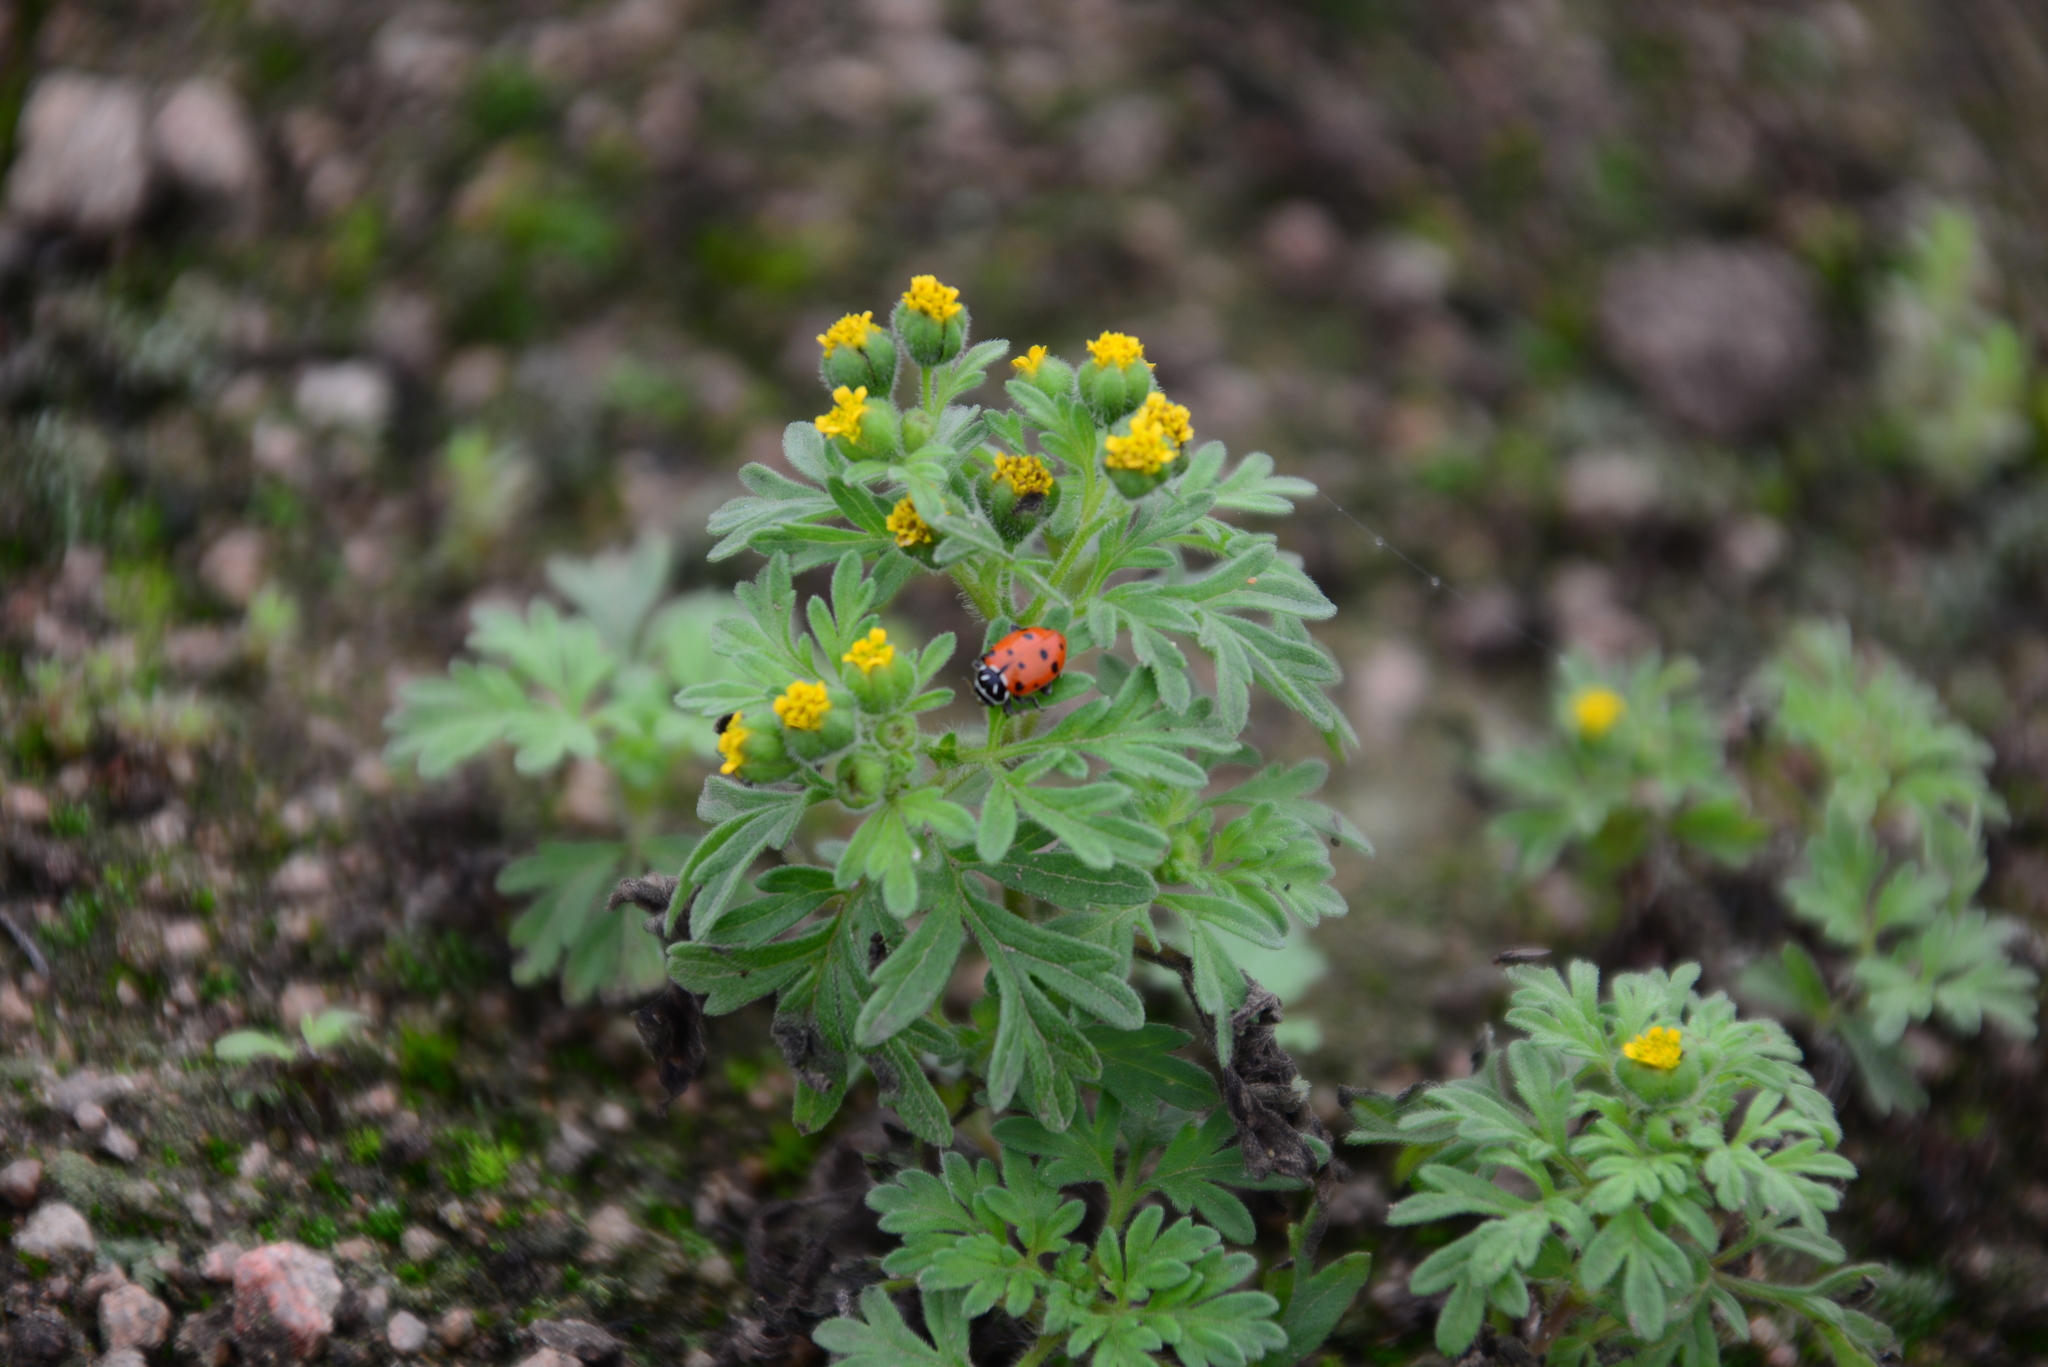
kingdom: Plantae
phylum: Tracheophyta
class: Magnoliopsida
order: Asterales
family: Asteraceae
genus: Villanova
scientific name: Villanova oppositifolia
